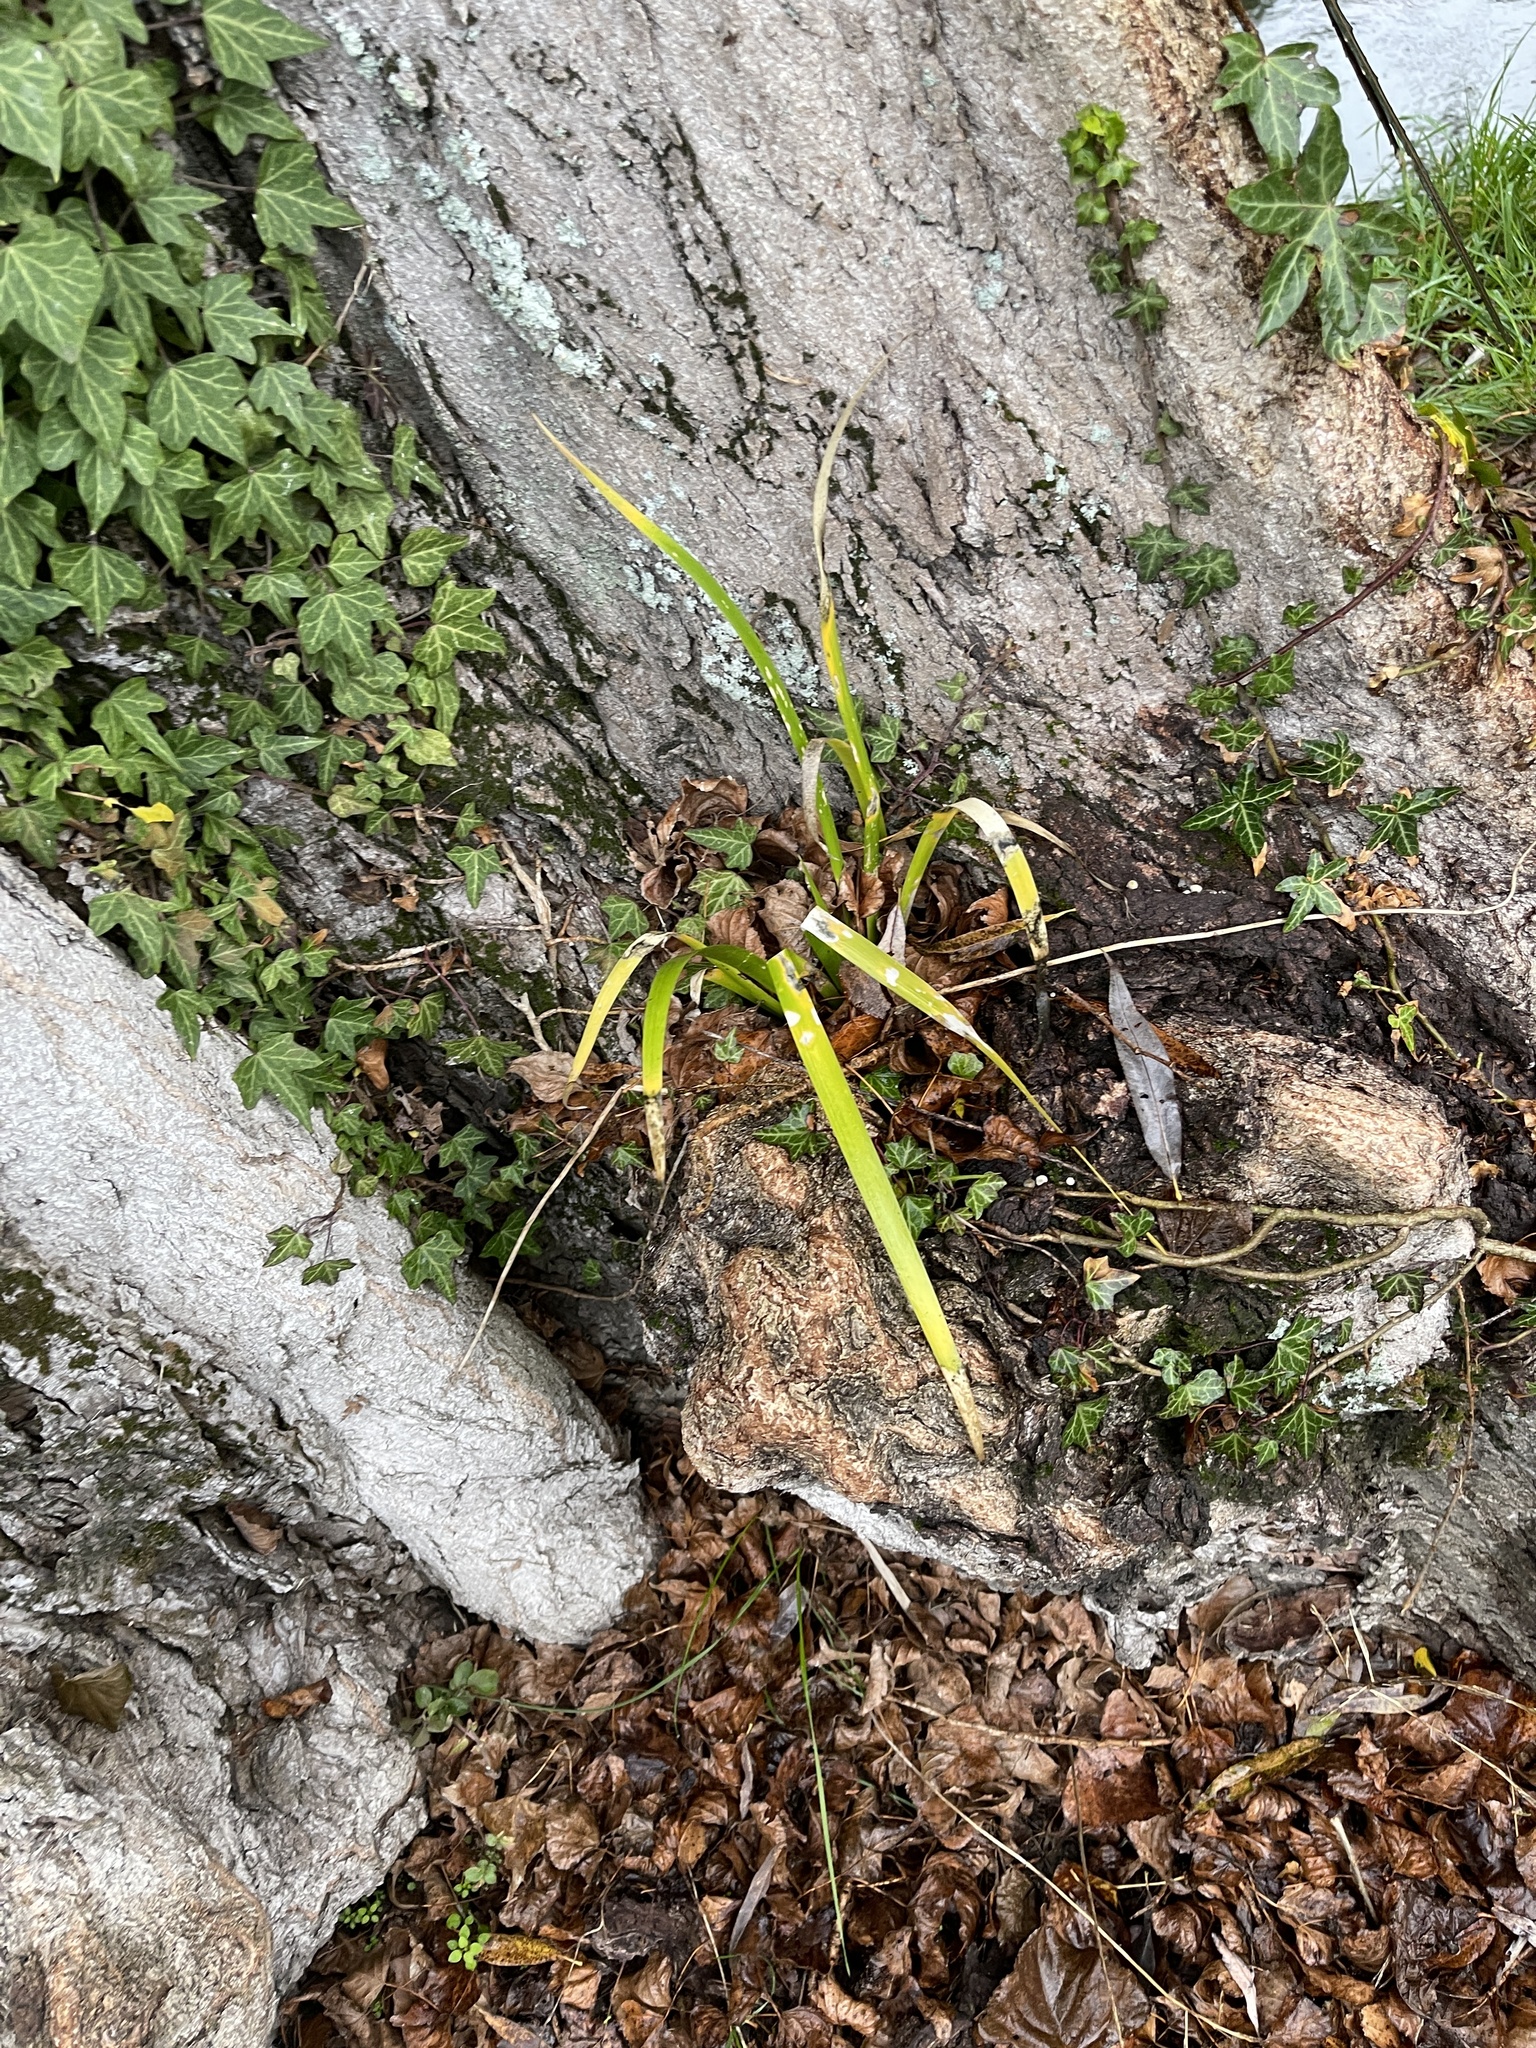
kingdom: Plantae
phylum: Tracheophyta
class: Liliopsida
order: Asparagales
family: Iridaceae
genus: Iris
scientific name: Iris foetidissima
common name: Stinking iris
